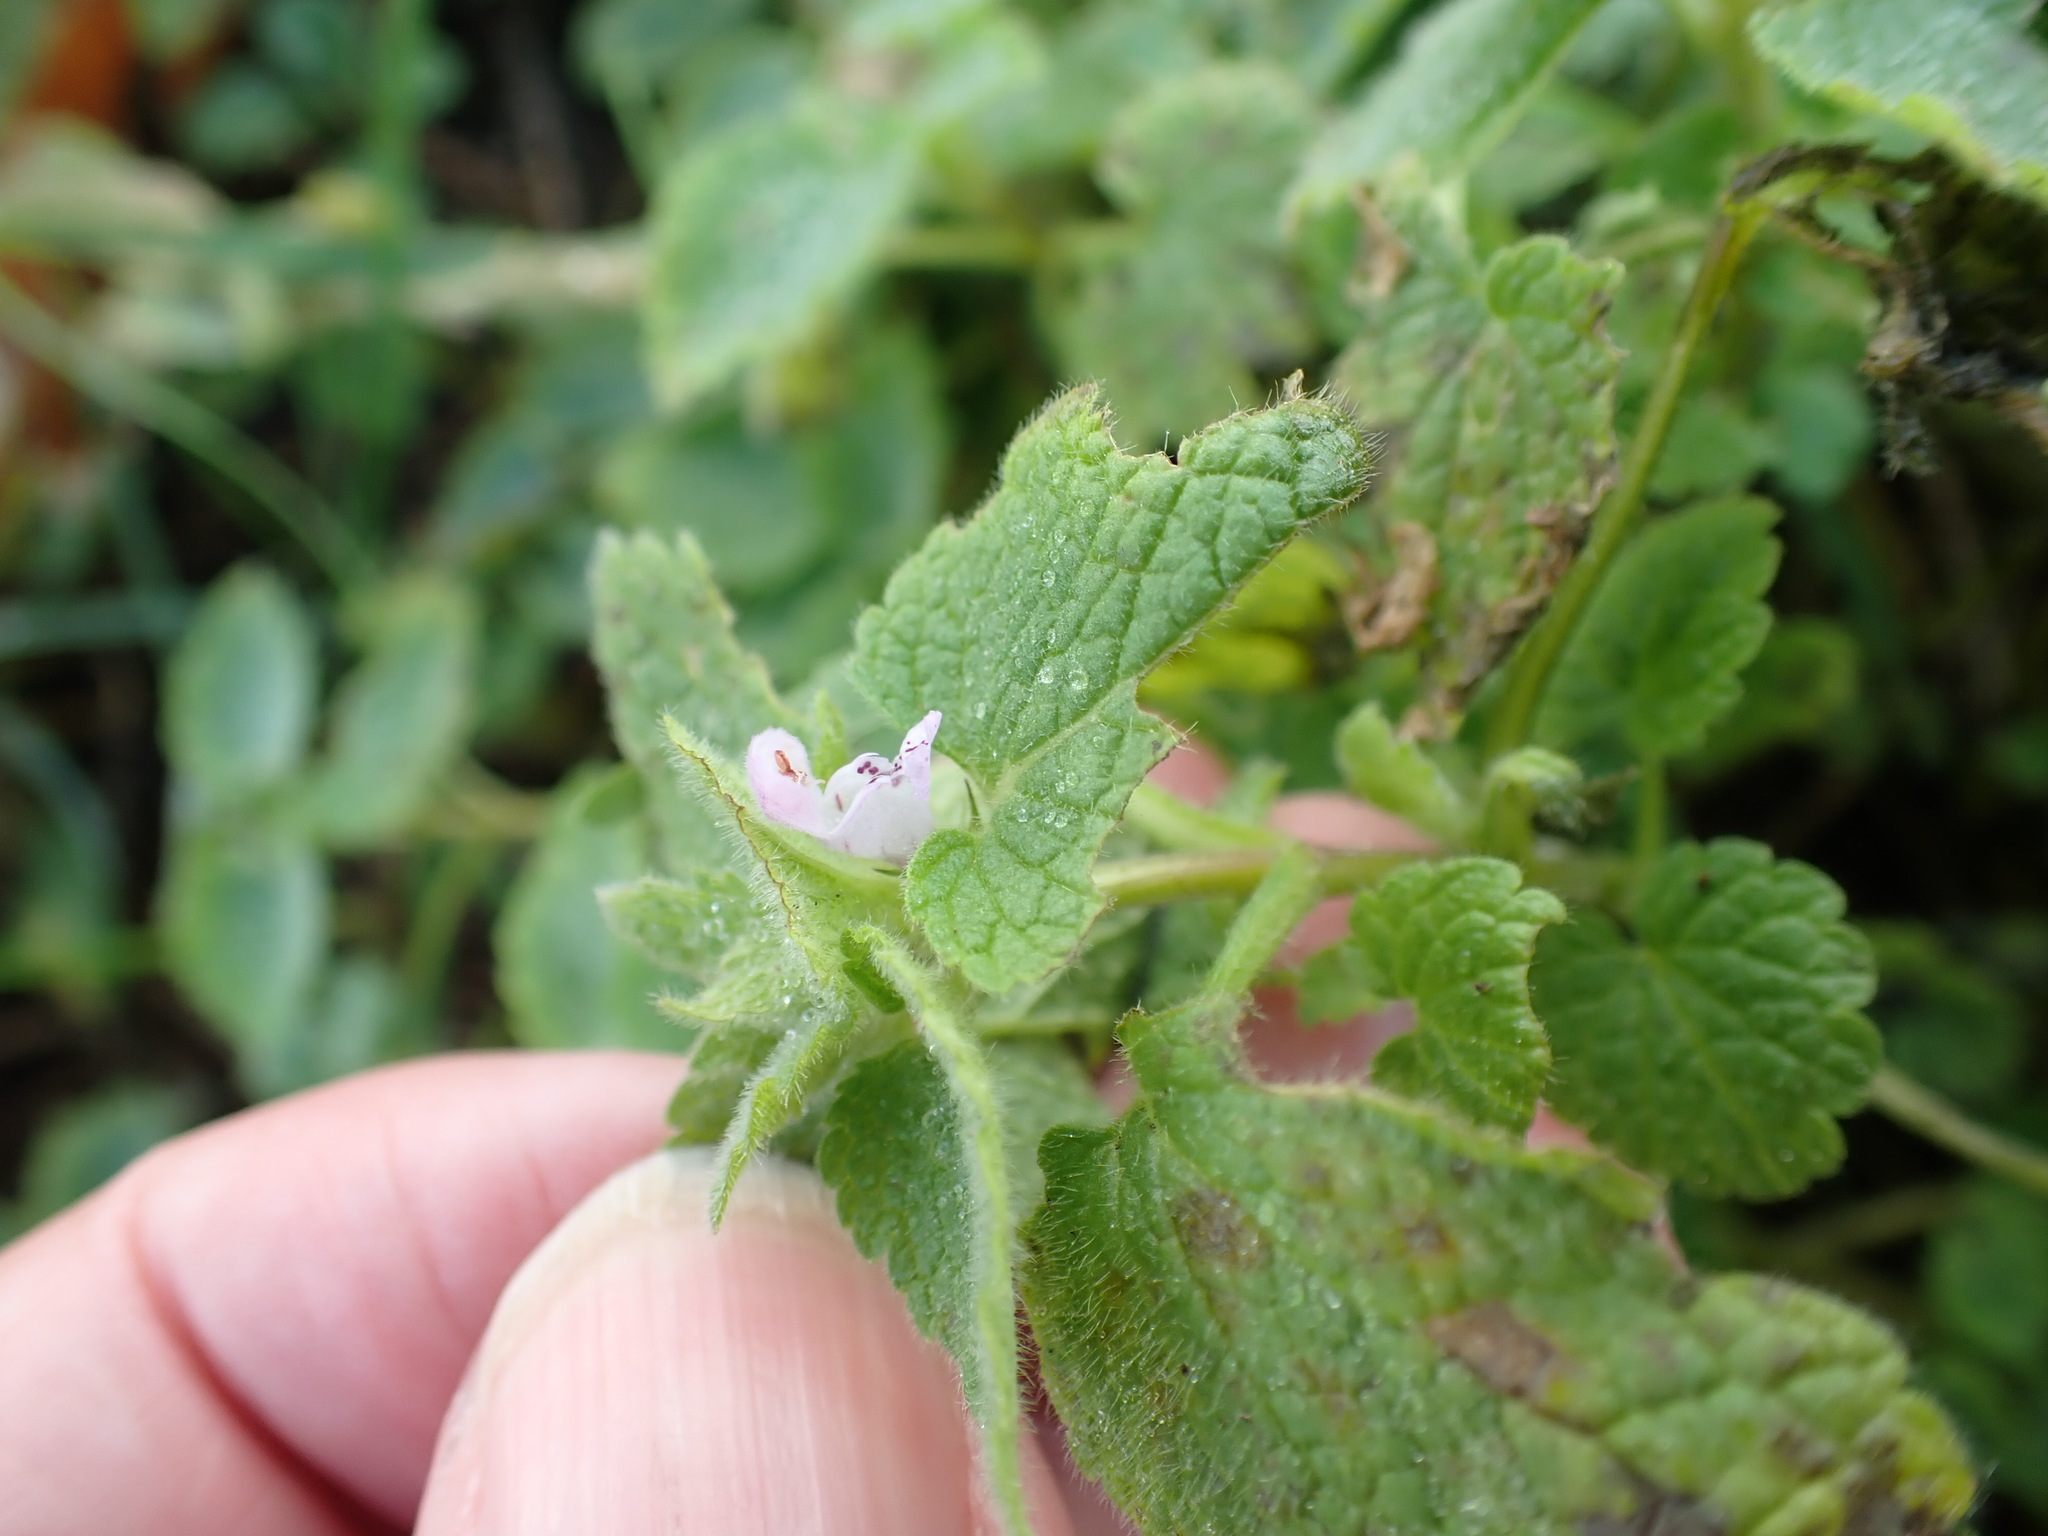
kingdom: Plantae
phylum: Tracheophyta
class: Magnoliopsida
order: Lamiales
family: Lamiaceae
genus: Lamium
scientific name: Lamium purpureum
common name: Red dead-nettle
